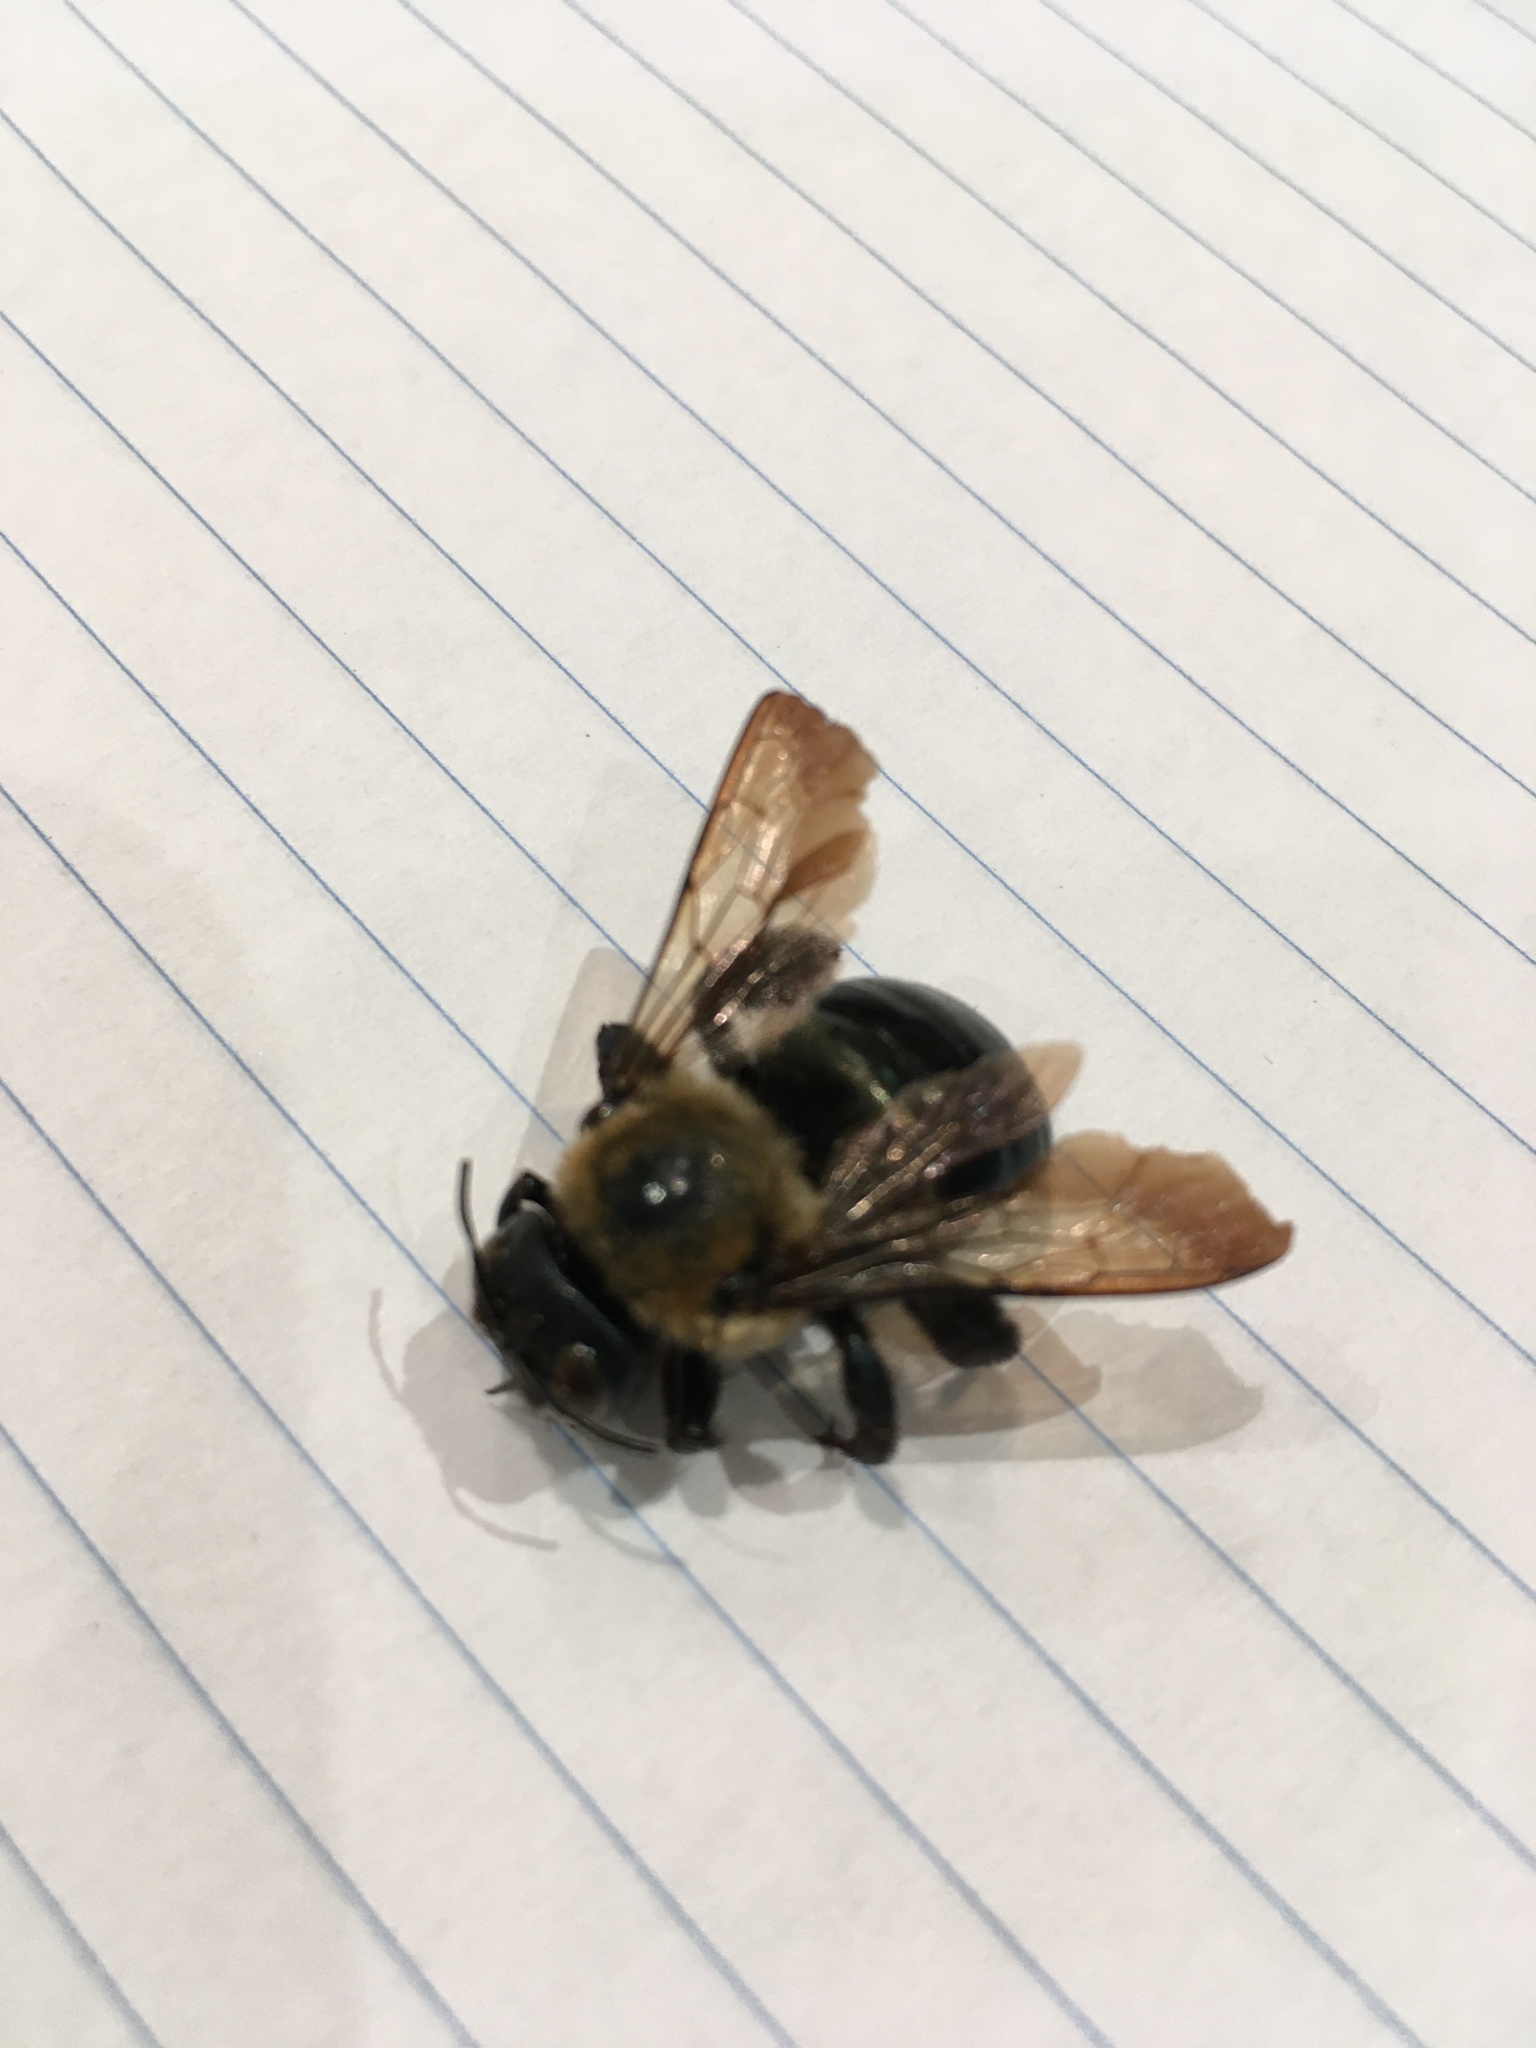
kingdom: Animalia
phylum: Arthropoda
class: Insecta
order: Hymenoptera
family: Apidae
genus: Xylocopa
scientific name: Xylocopa virginica
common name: Carpenter bee
